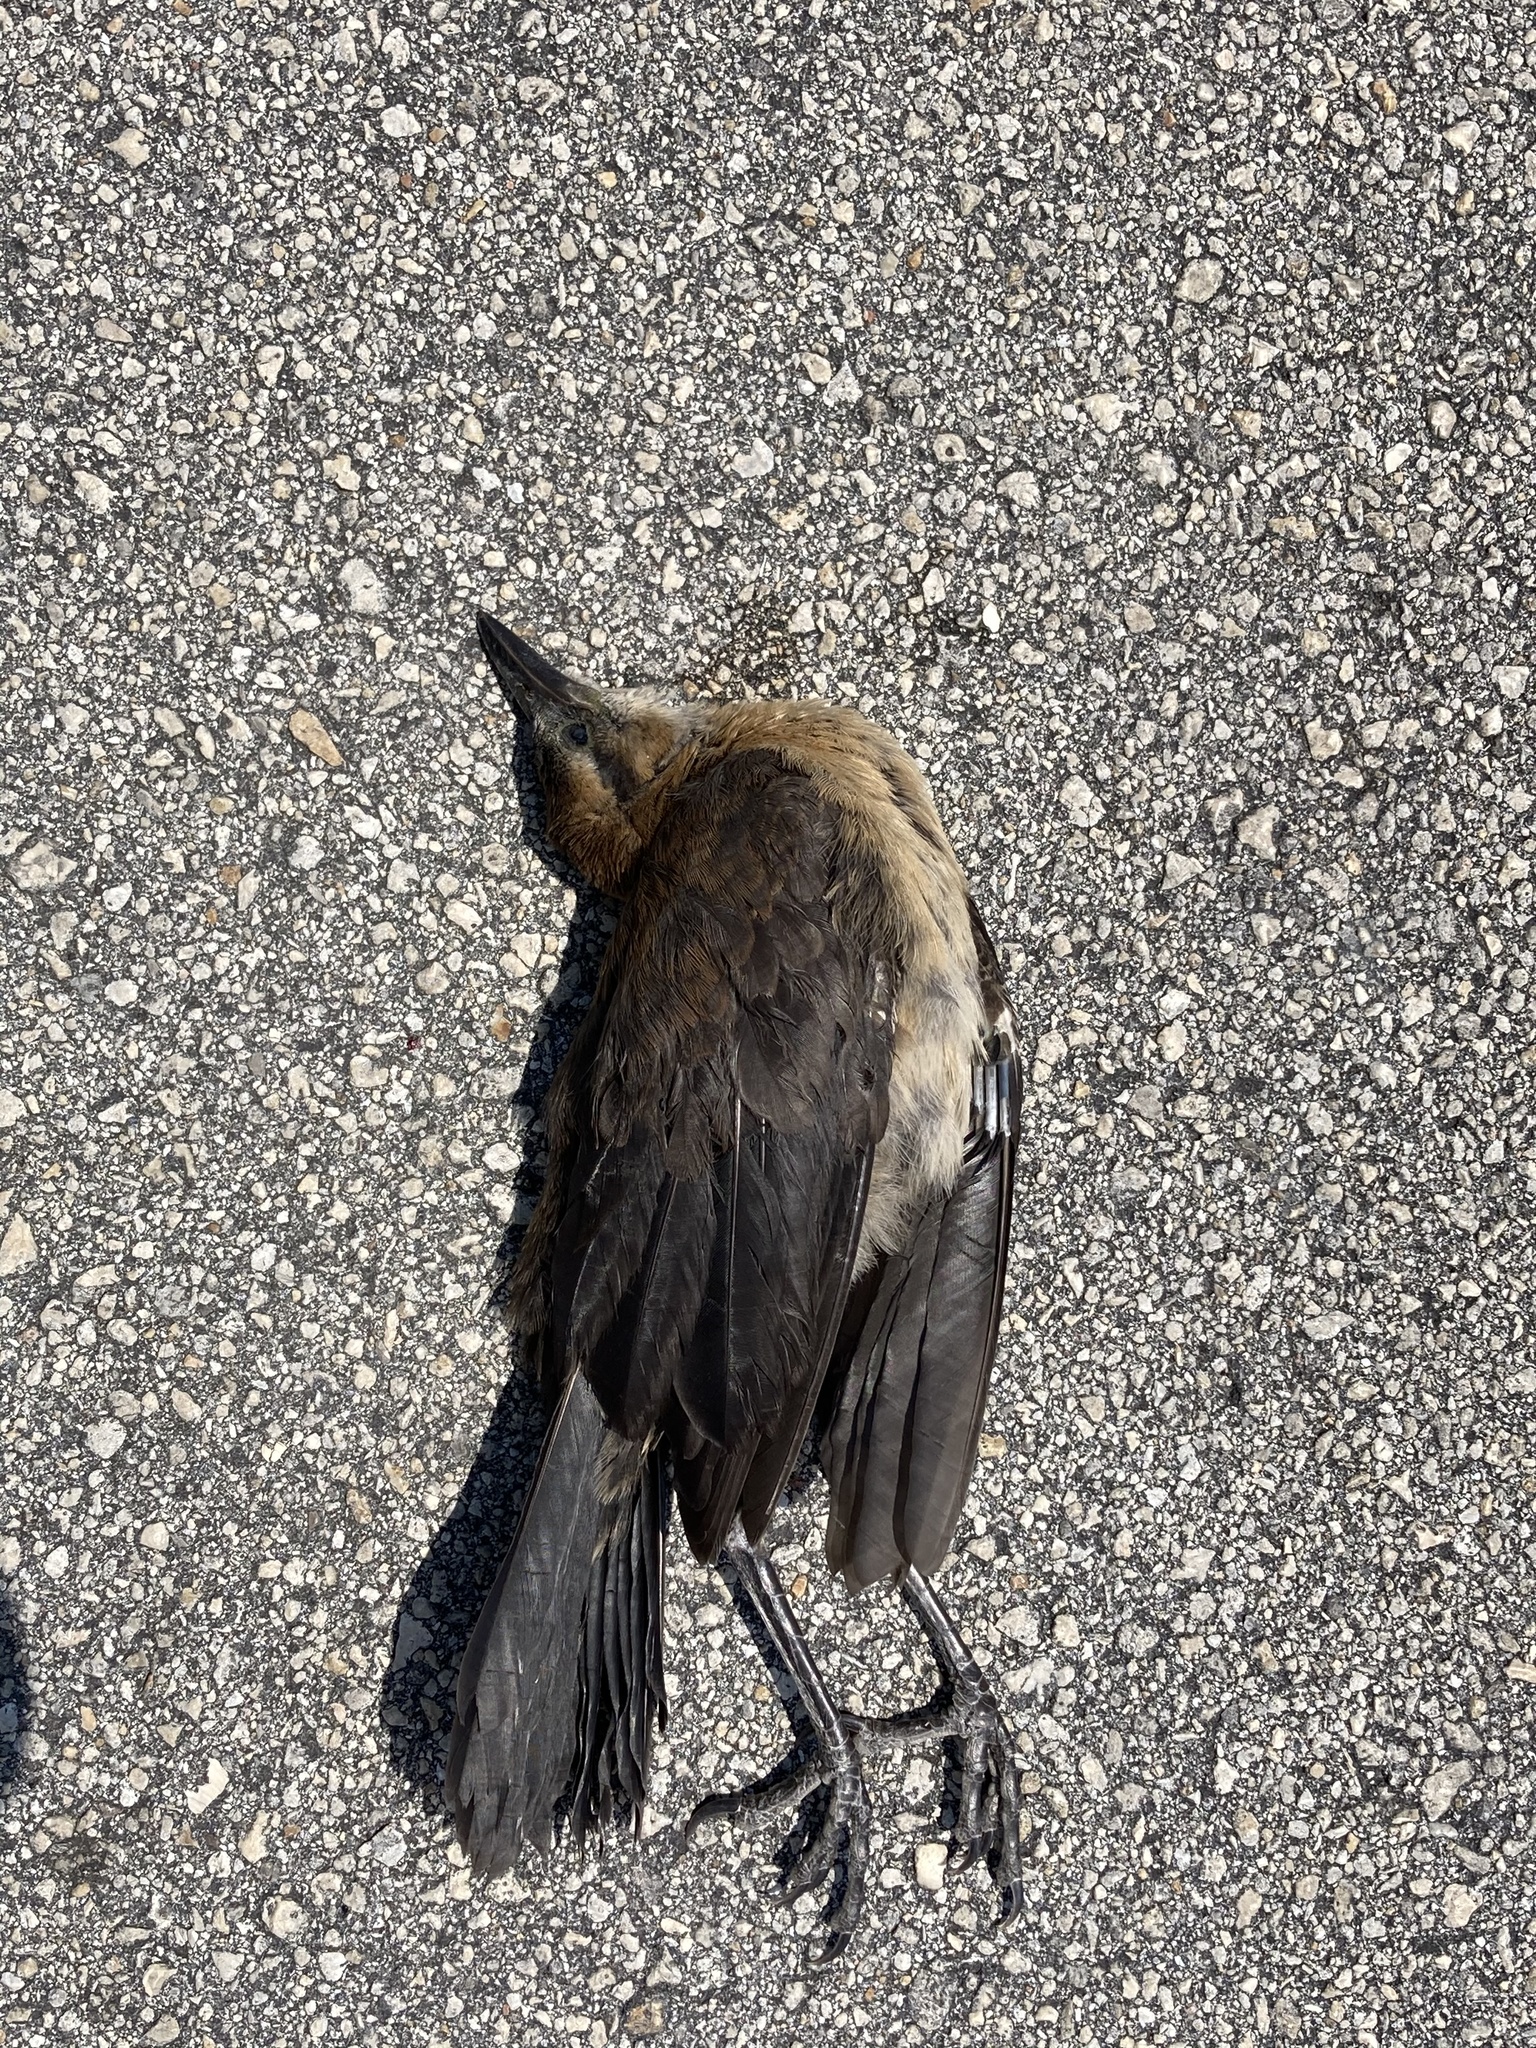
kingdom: Animalia
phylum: Chordata
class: Aves
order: Passeriformes
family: Icteridae
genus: Quiscalus
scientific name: Quiscalus major
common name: Boat-tailed grackle
